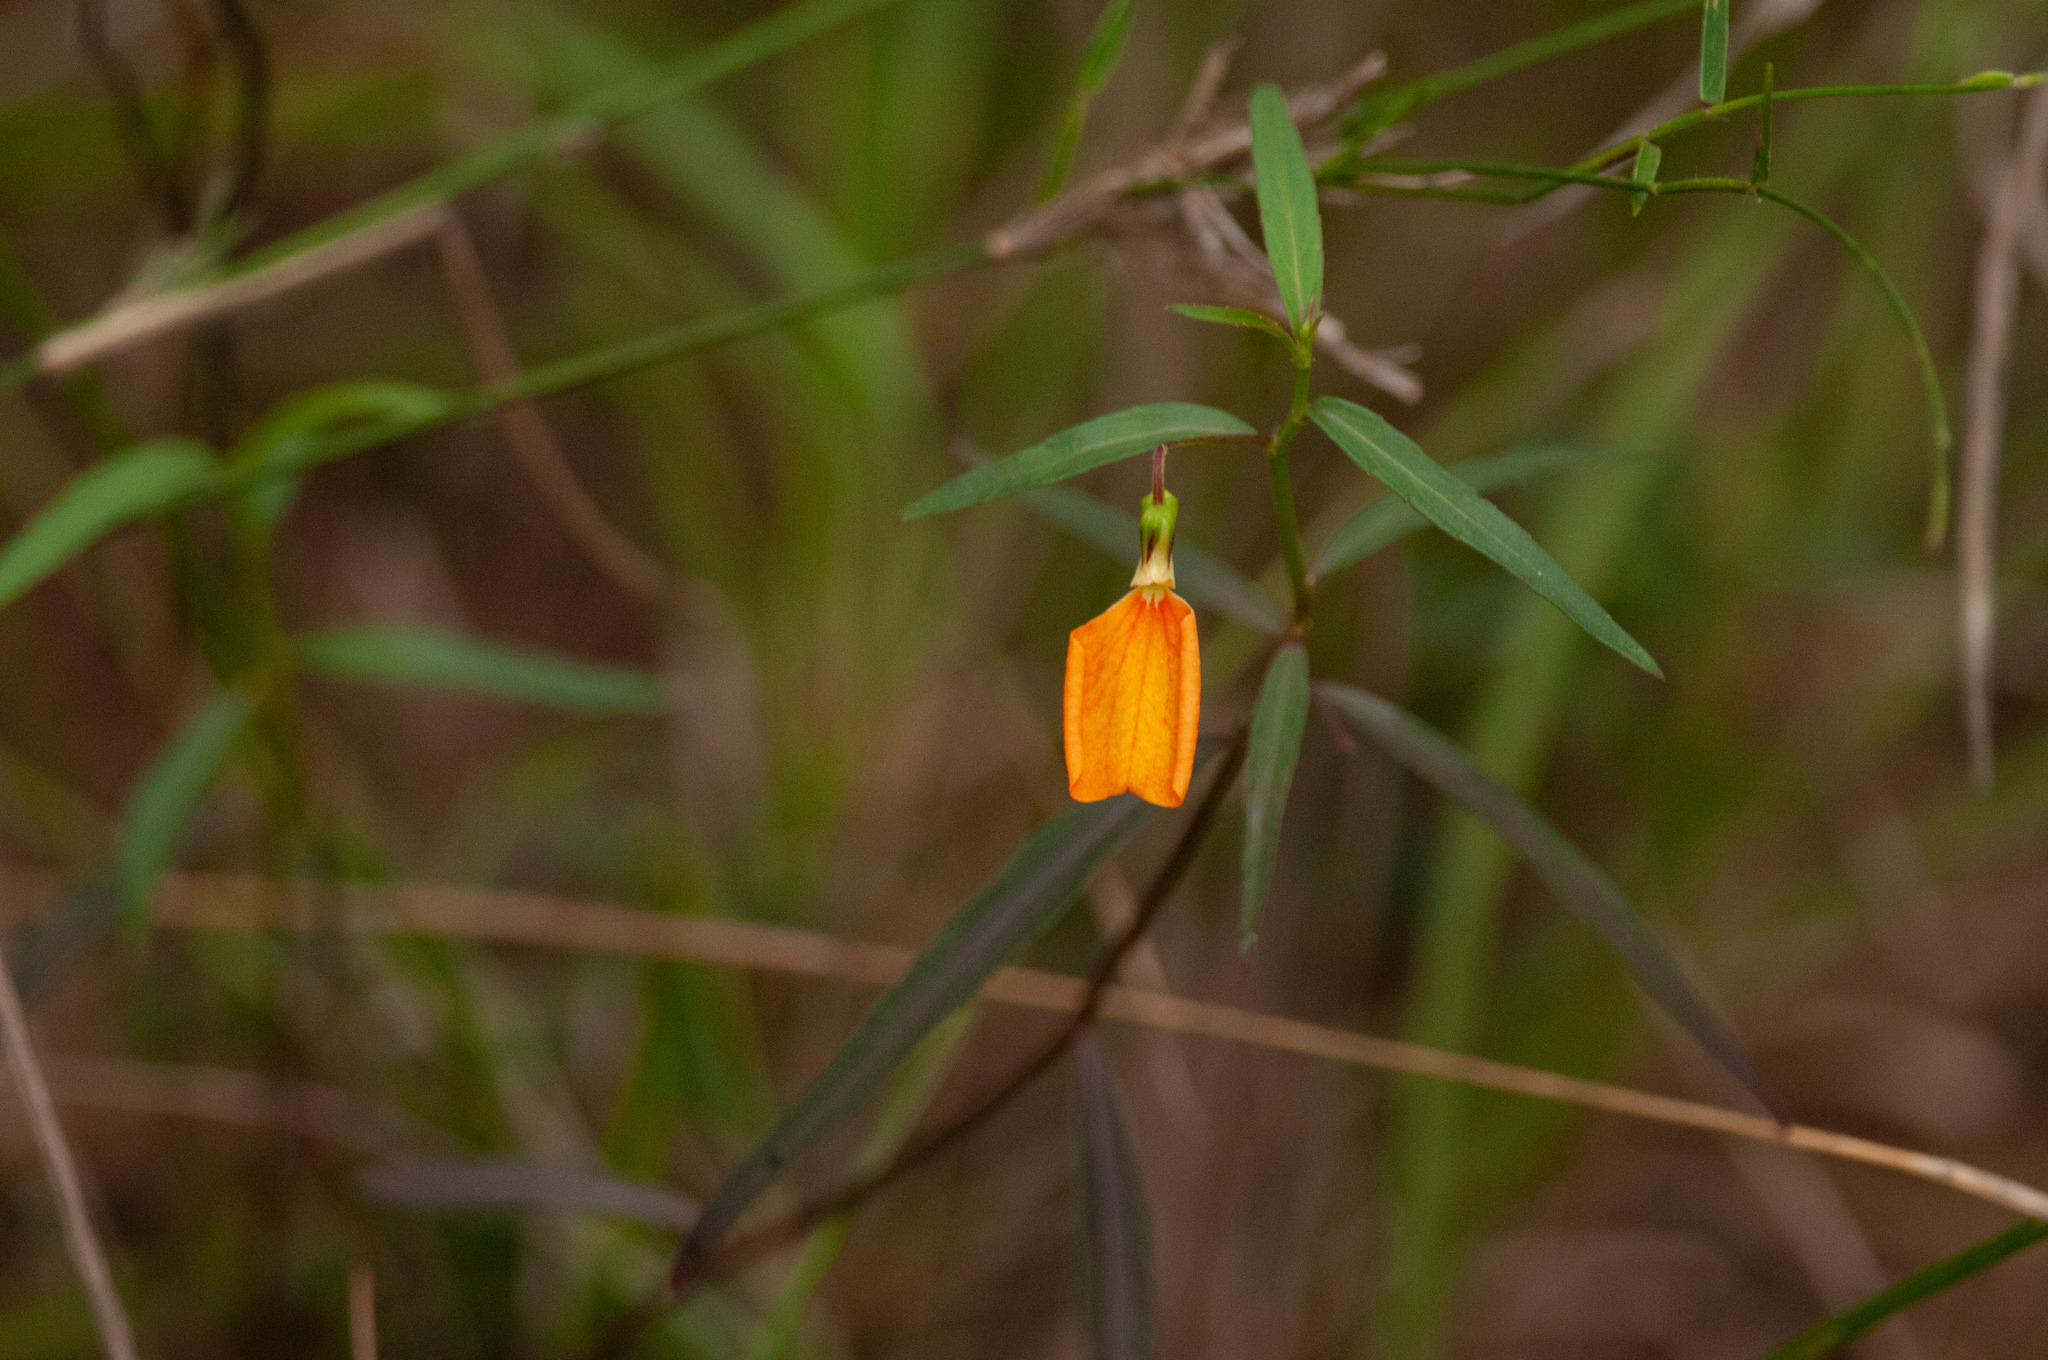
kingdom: Plantae
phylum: Tracheophyta
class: Magnoliopsida
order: Malpighiales
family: Violaceae
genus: Pigea
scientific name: Pigea stellarioides
